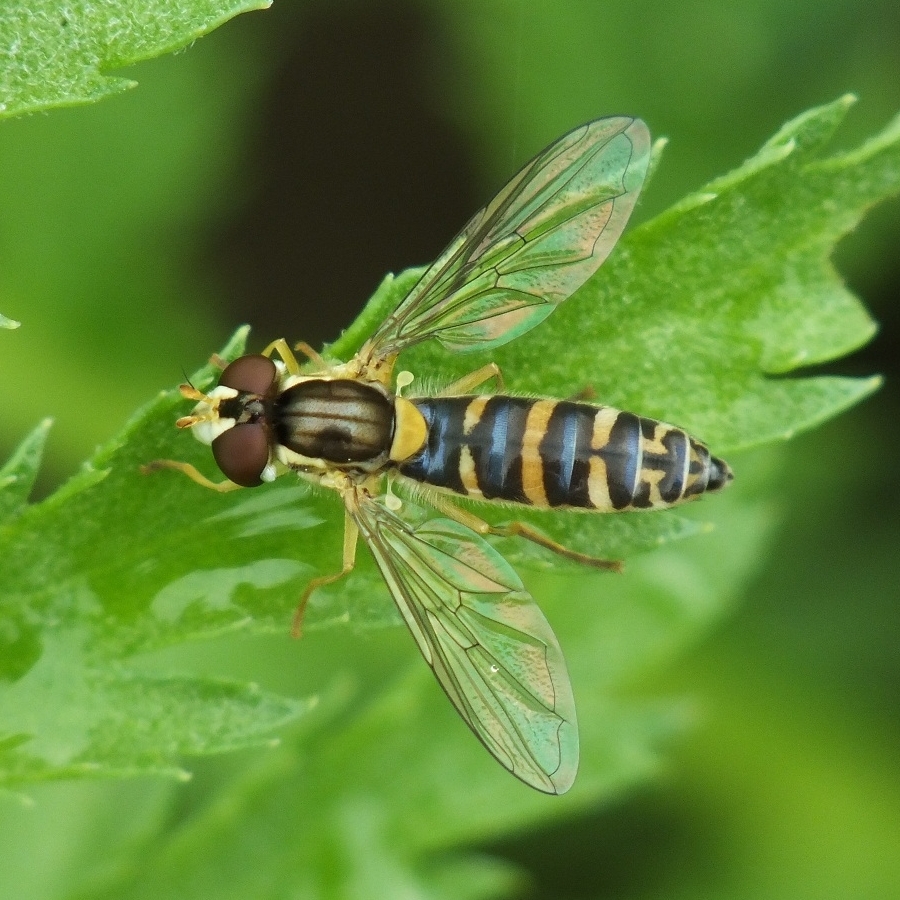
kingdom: Animalia
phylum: Arthropoda
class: Insecta
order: Diptera
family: Syrphidae
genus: Sphaerophoria
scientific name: Sphaerophoria
